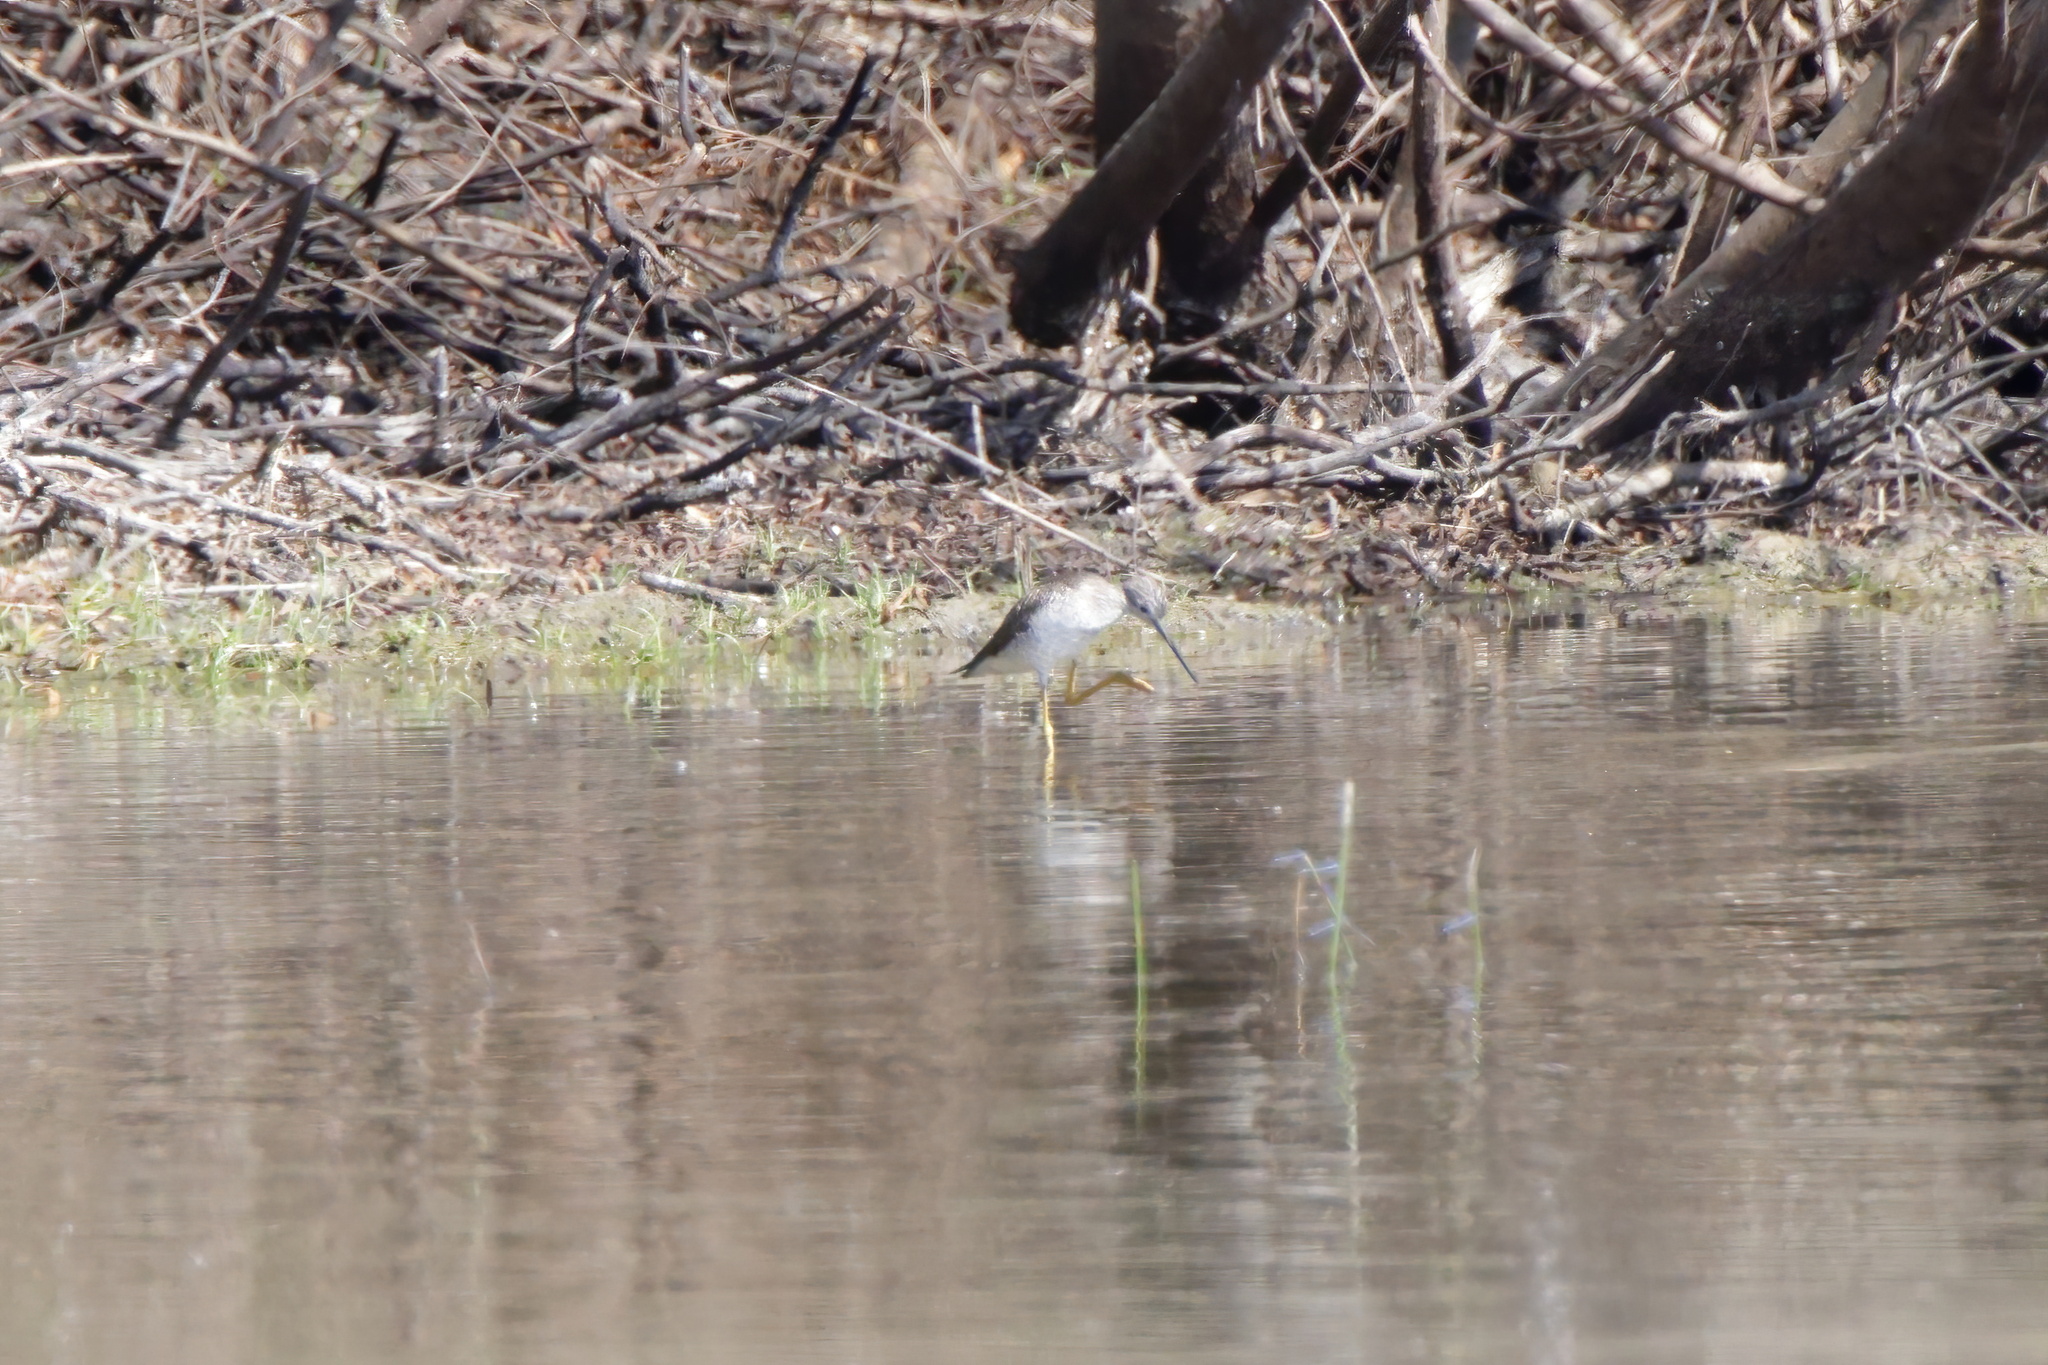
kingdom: Animalia
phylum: Chordata
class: Aves
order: Charadriiformes
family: Scolopacidae
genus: Tringa
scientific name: Tringa melanoleuca
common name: Greater yellowlegs
